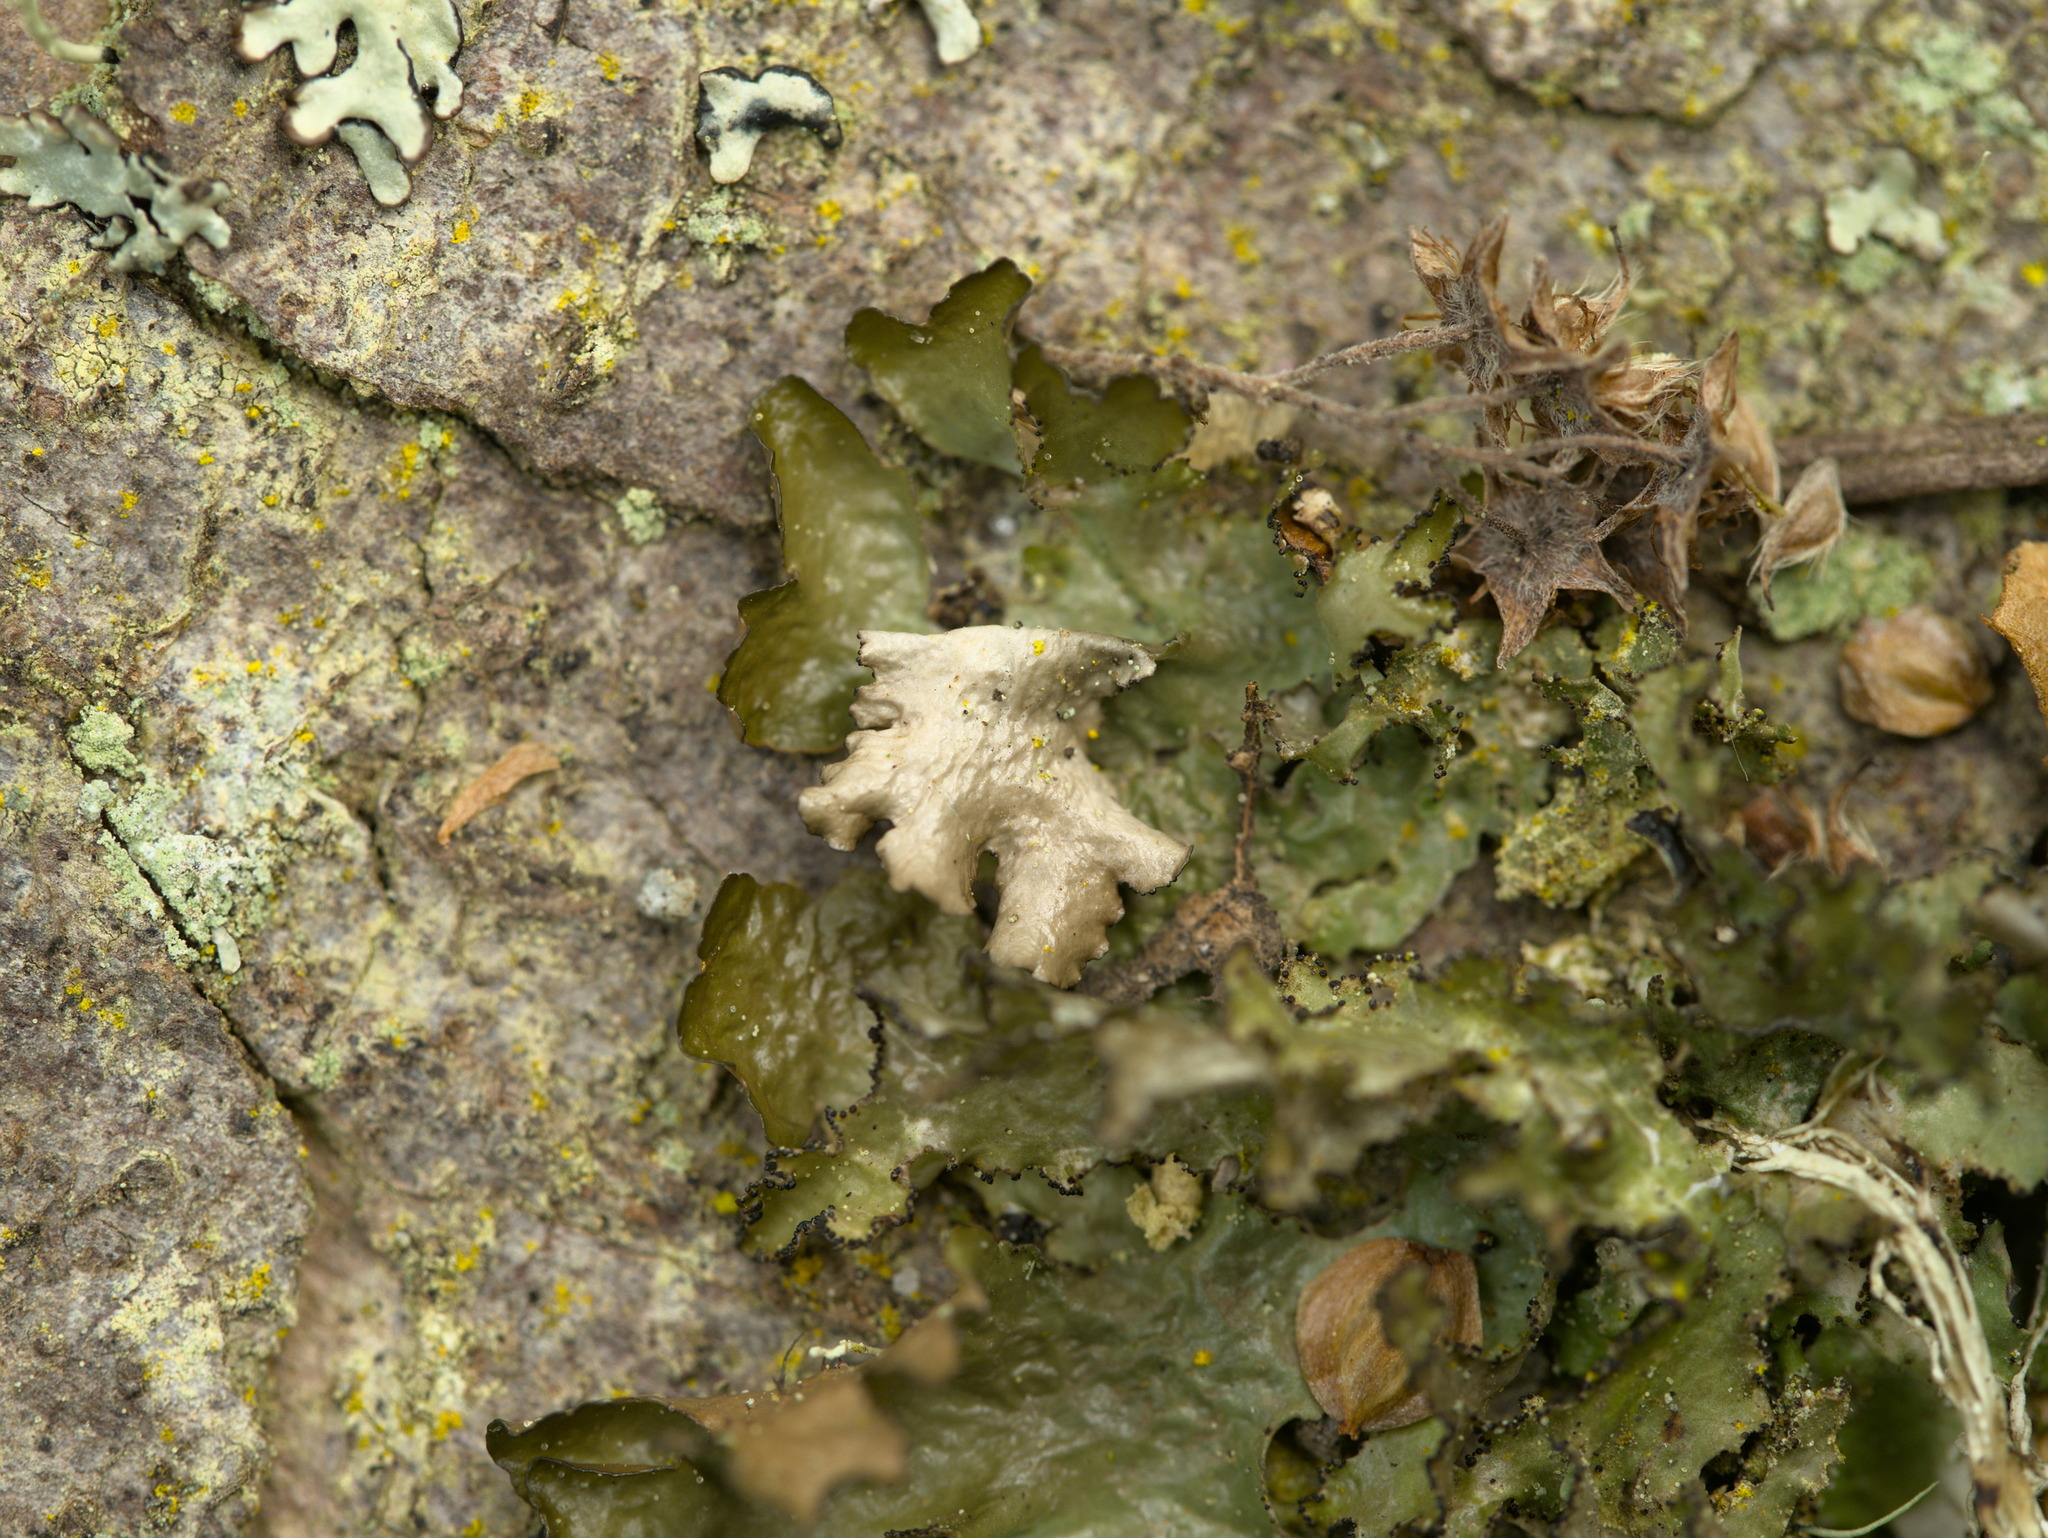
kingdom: Fungi
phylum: Ascomycota
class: Lecanoromycetes
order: Lecanorales
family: Parmeliaceae
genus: Nephromopsis
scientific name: Nephromopsis orbata
